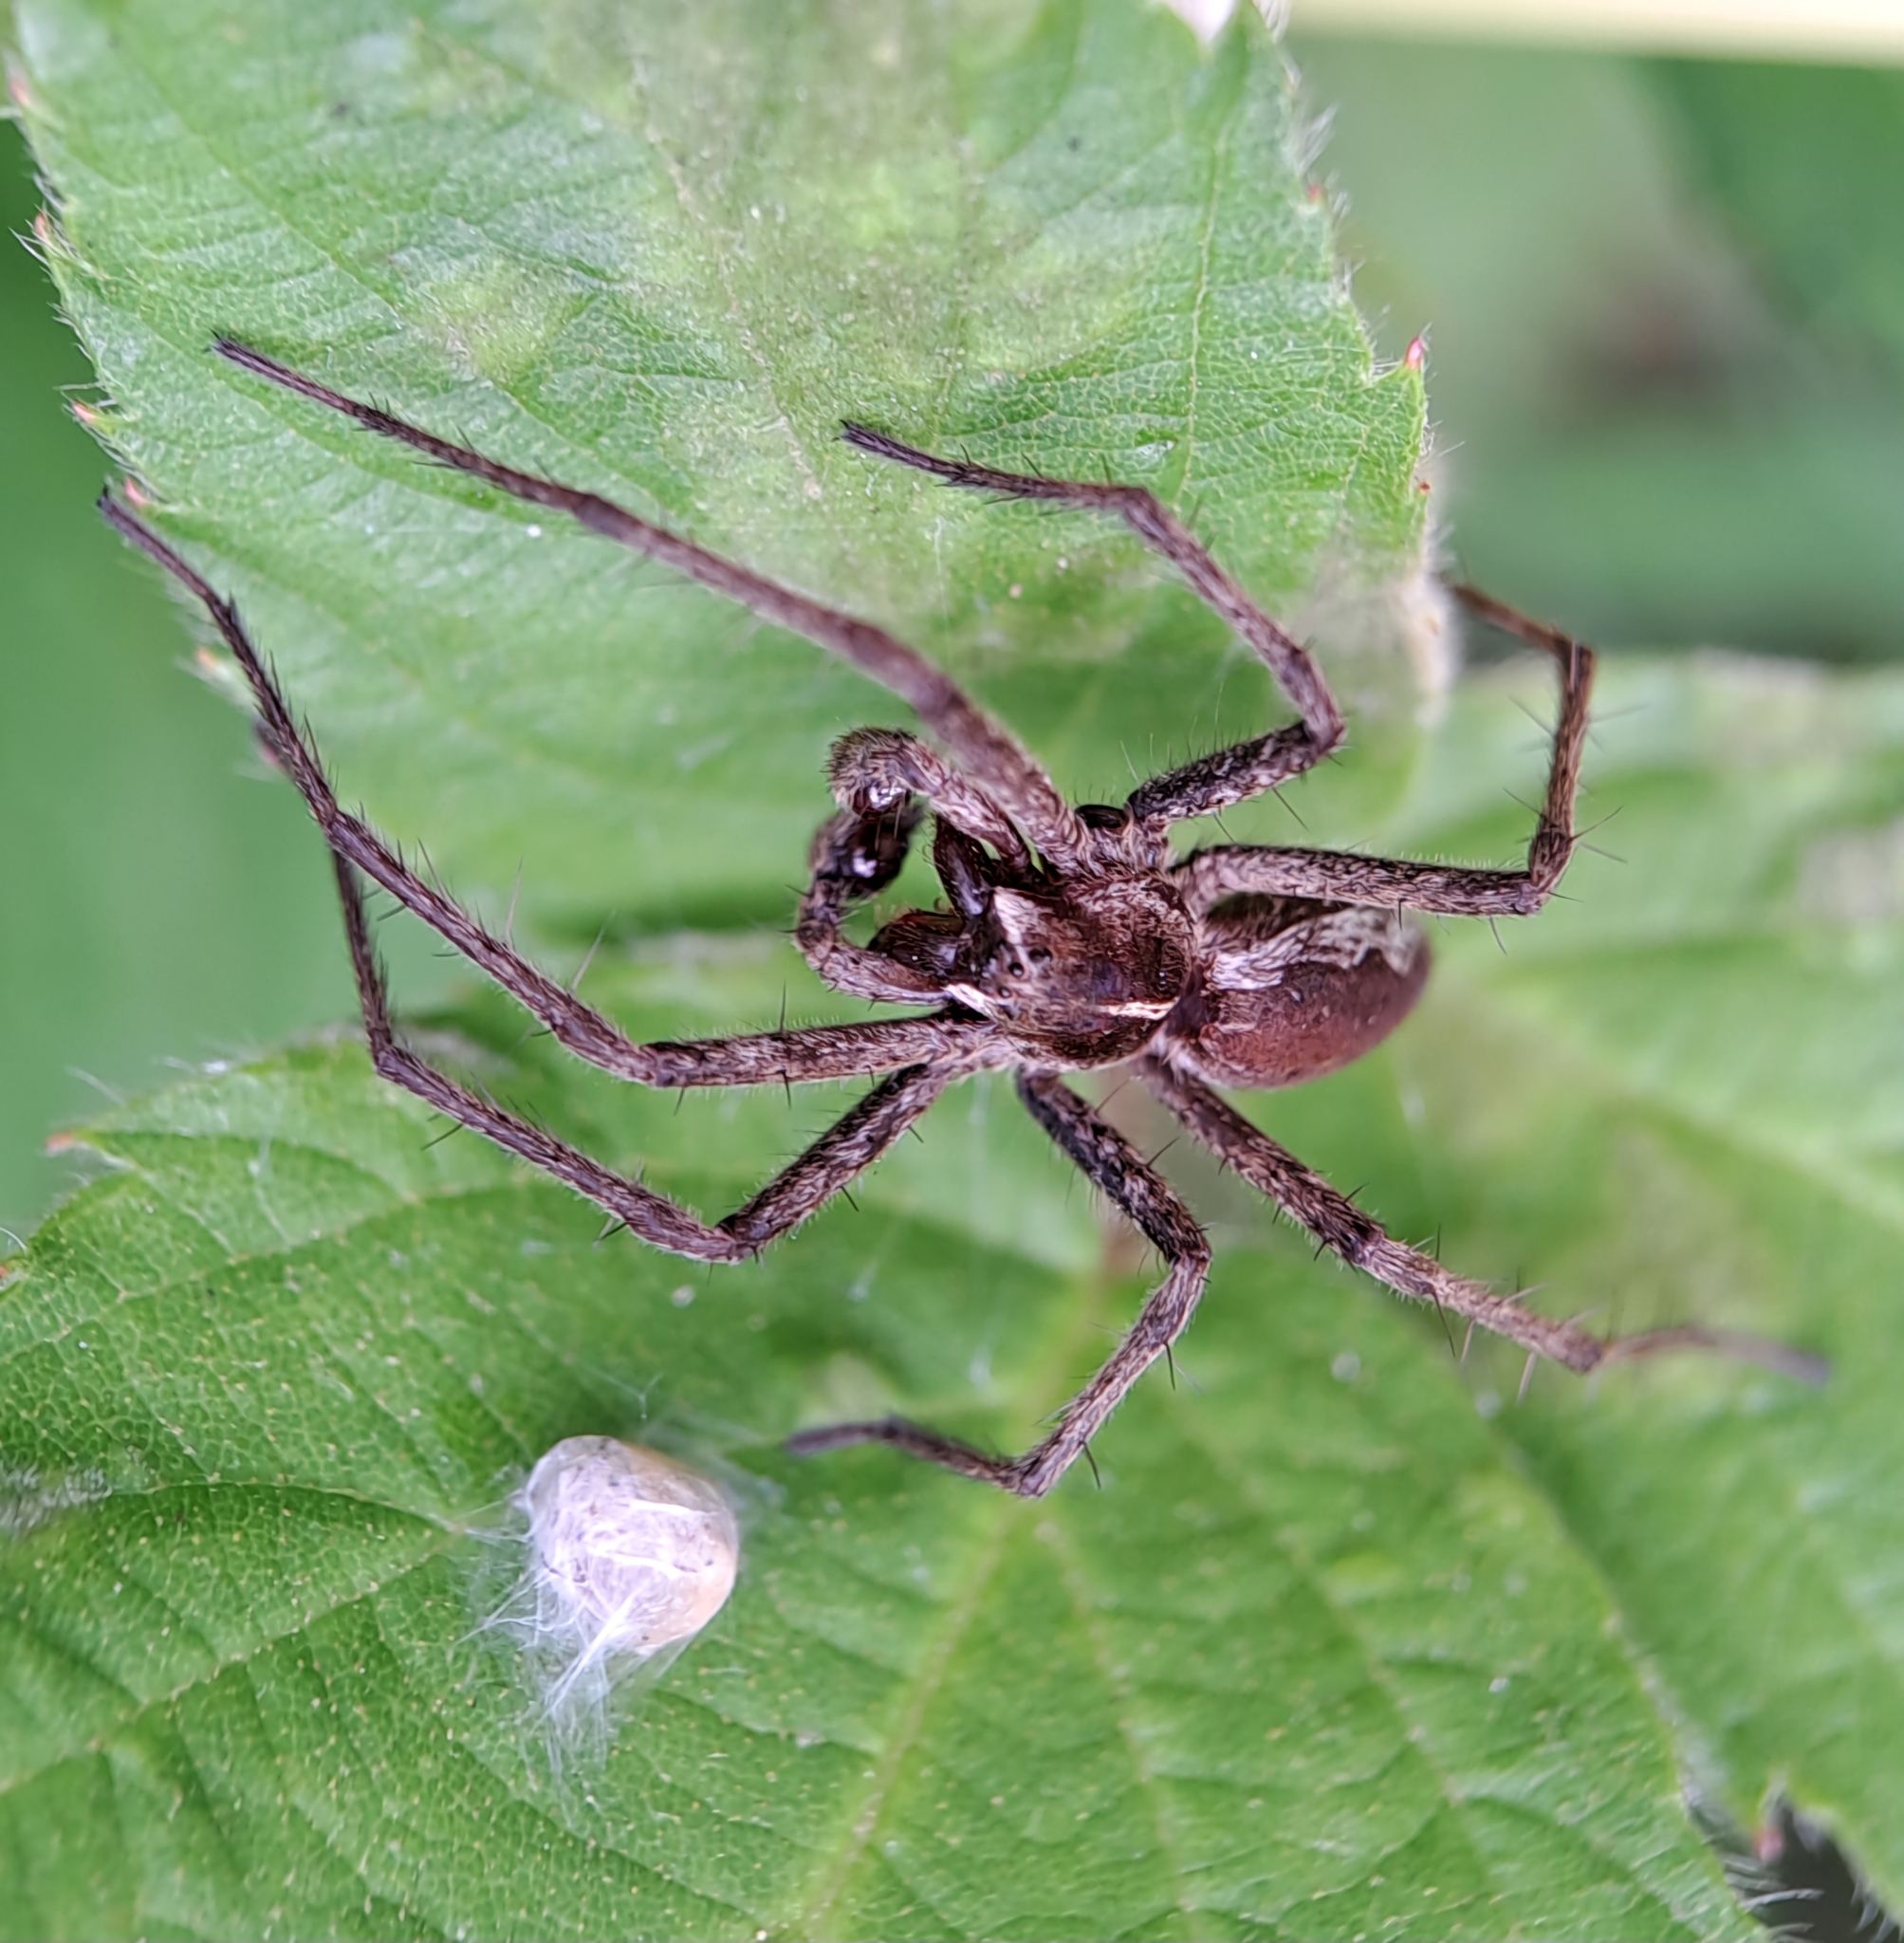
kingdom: Animalia
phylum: Arthropoda
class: Arachnida
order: Araneae
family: Pisauridae
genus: Pisaura
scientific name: Pisaura mirabilis
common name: Tent spider
